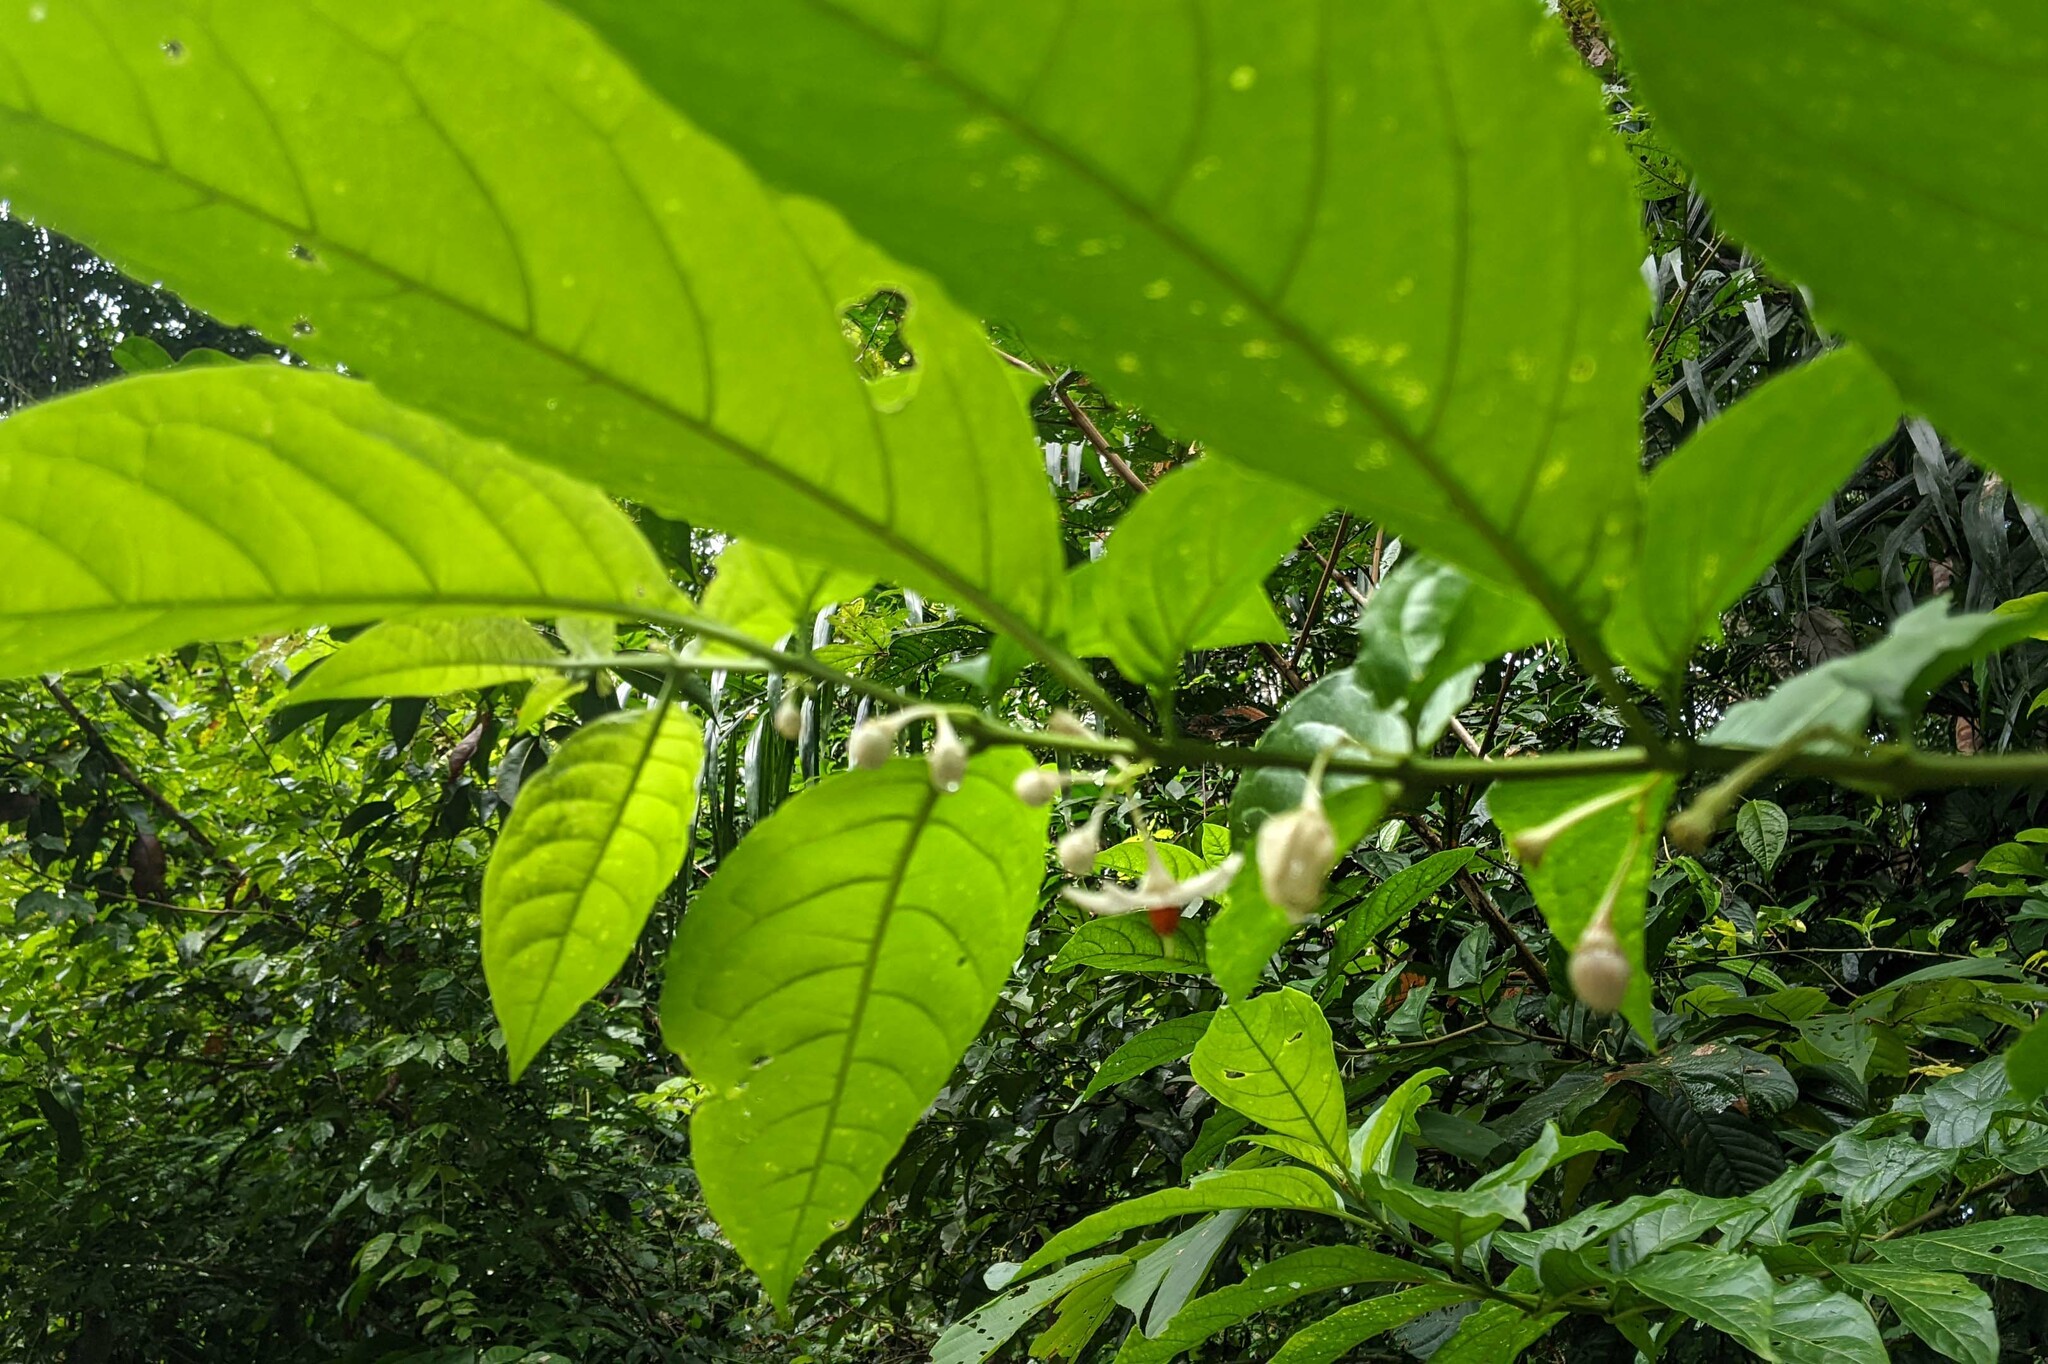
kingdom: Plantae
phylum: Tracheophyta
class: Magnoliopsida
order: Solanales
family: Solanaceae
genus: Solanum
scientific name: Solanum leucocarpon
